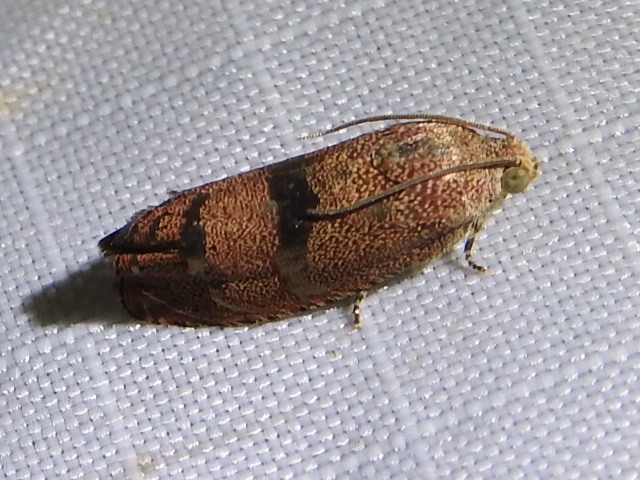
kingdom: Animalia
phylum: Arthropoda
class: Insecta
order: Lepidoptera
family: Tortricidae
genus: Cydia
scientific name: Cydia latiferreana
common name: Filbertworm moth
